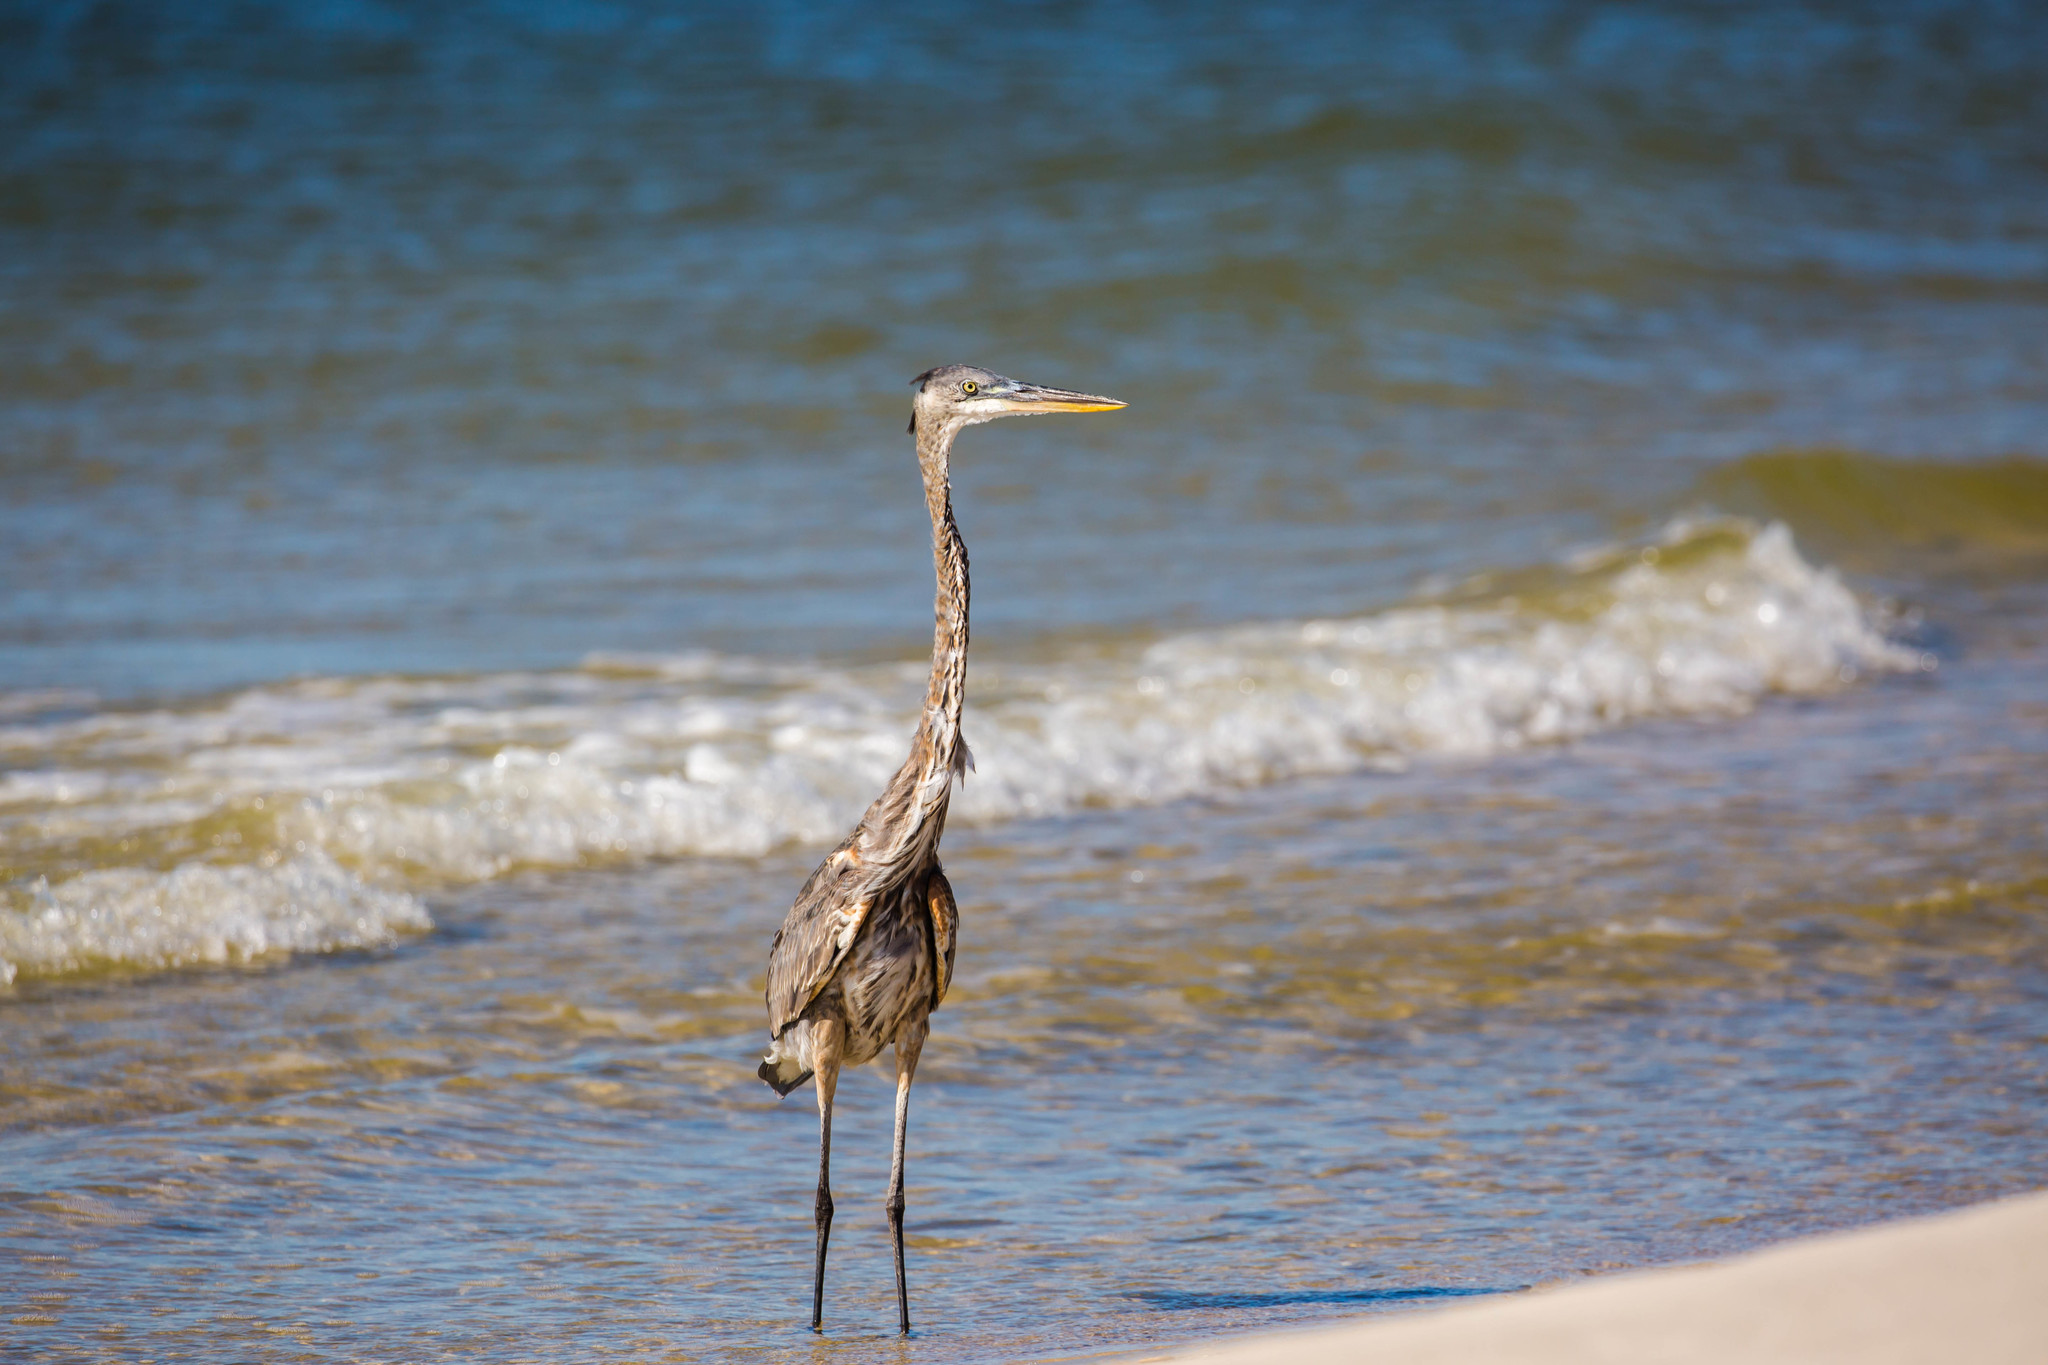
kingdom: Animalia
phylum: Chordata
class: Aves
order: Pelecaniformes
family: Ardeidae
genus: Ardea
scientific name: Ardea herodias
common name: Great blue heron
